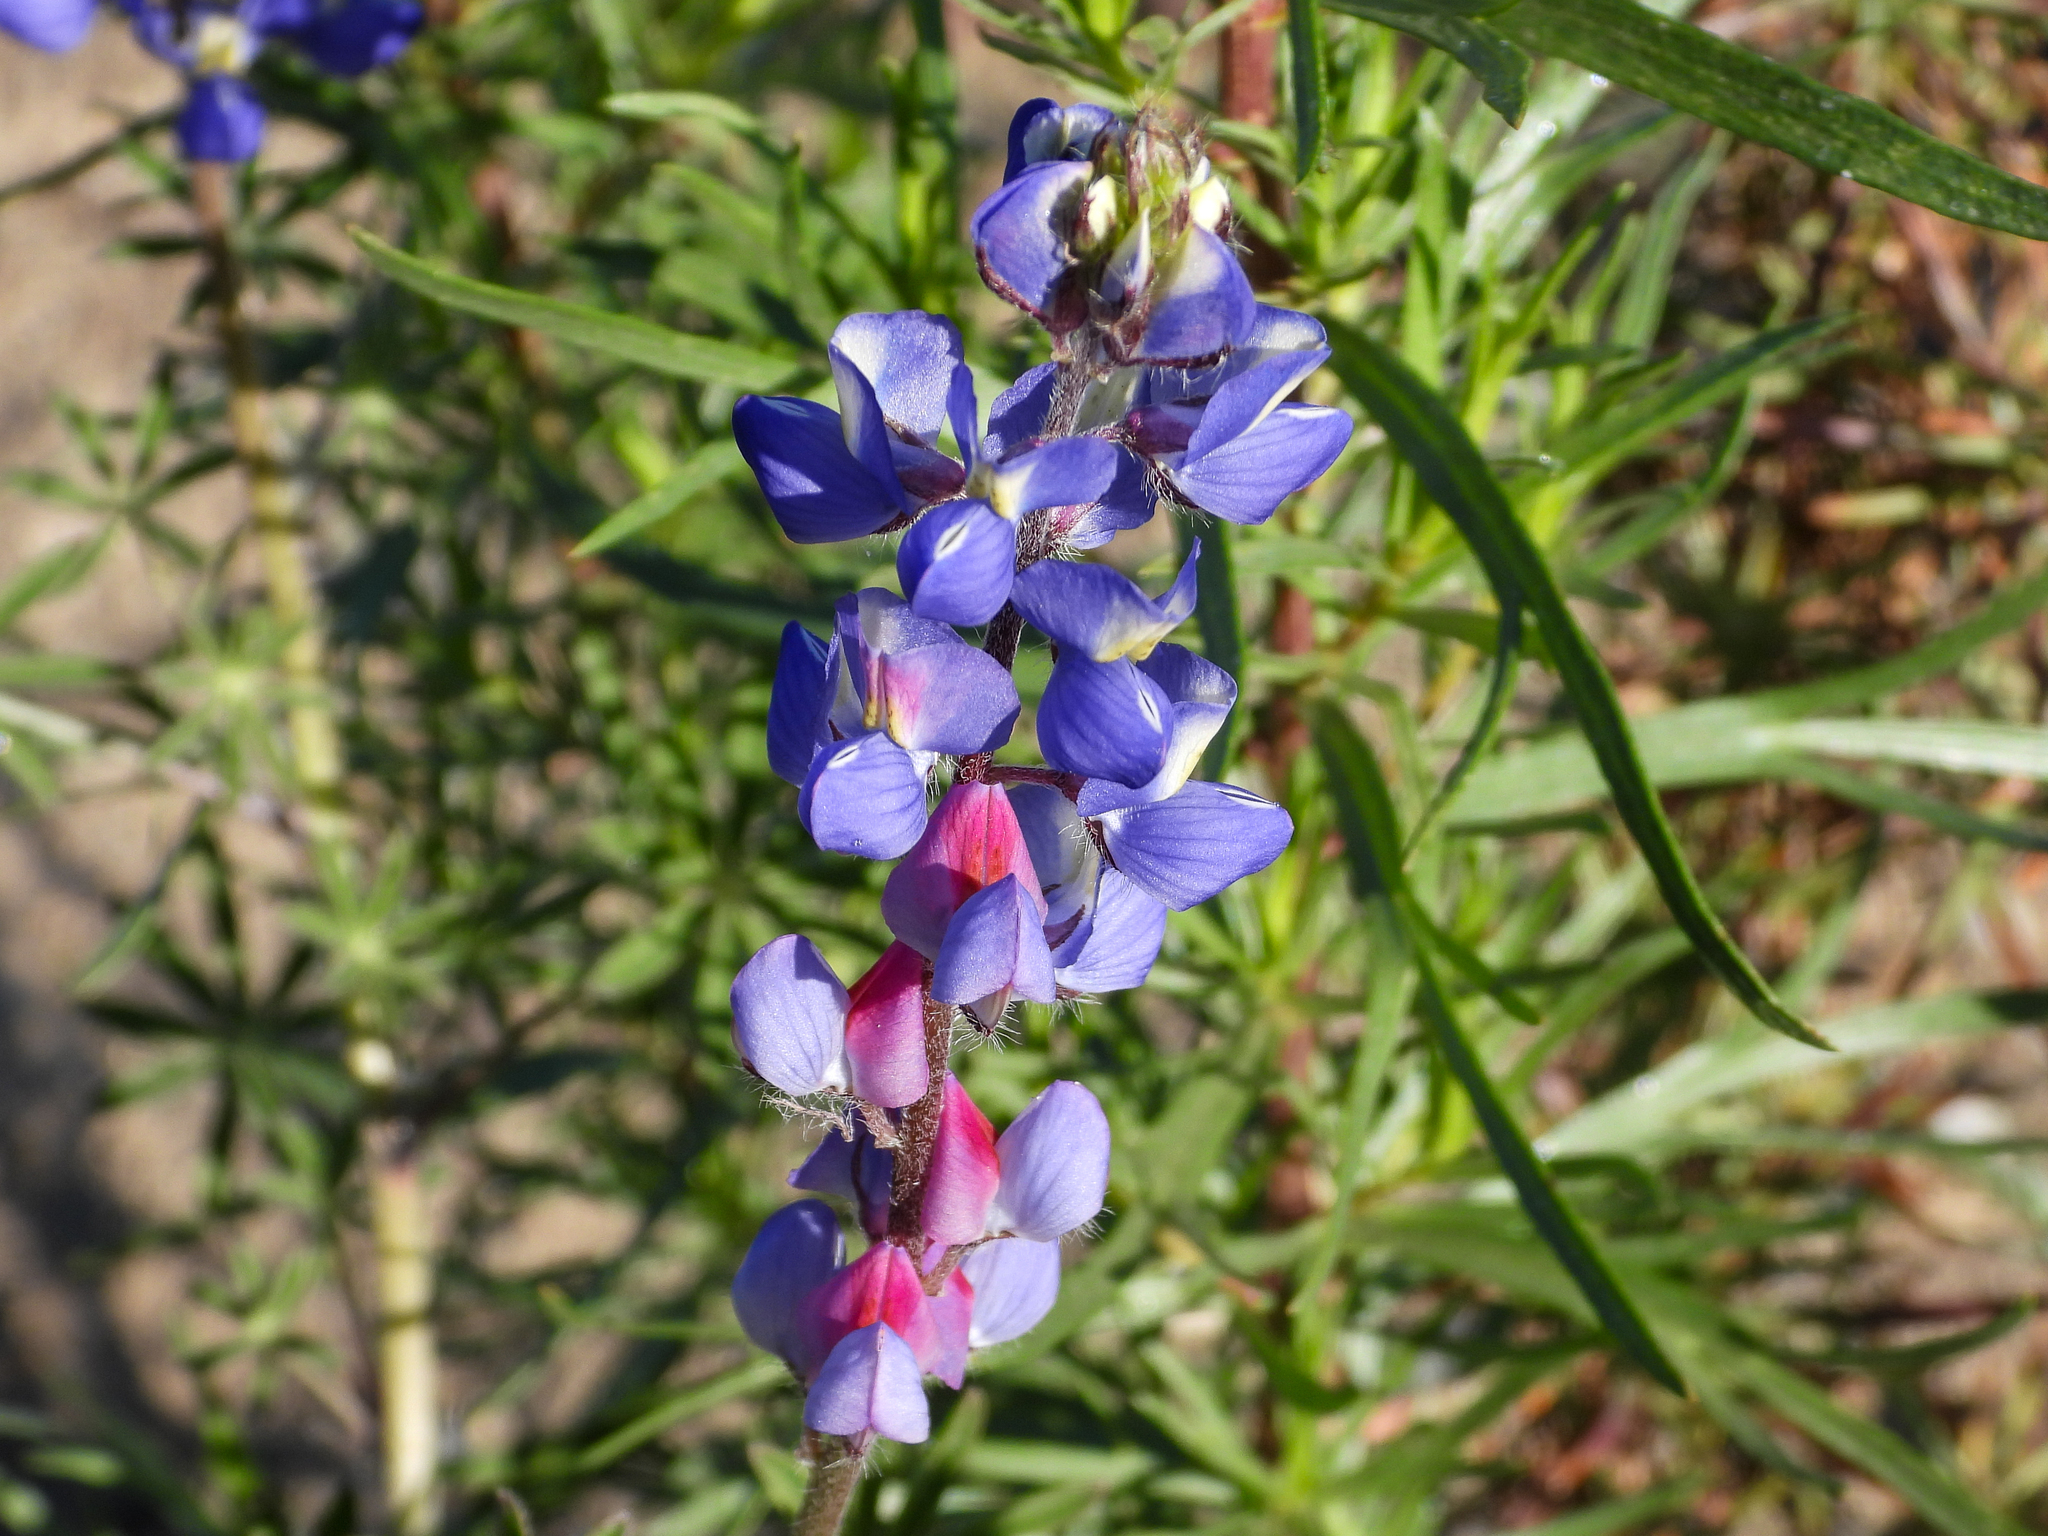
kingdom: Plantae
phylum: Tracheophyta
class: Magnoliopsida
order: Fabales
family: Fabaceae
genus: Lupinus
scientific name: Lupinus sparsiflorus
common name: Coulter's lupine
